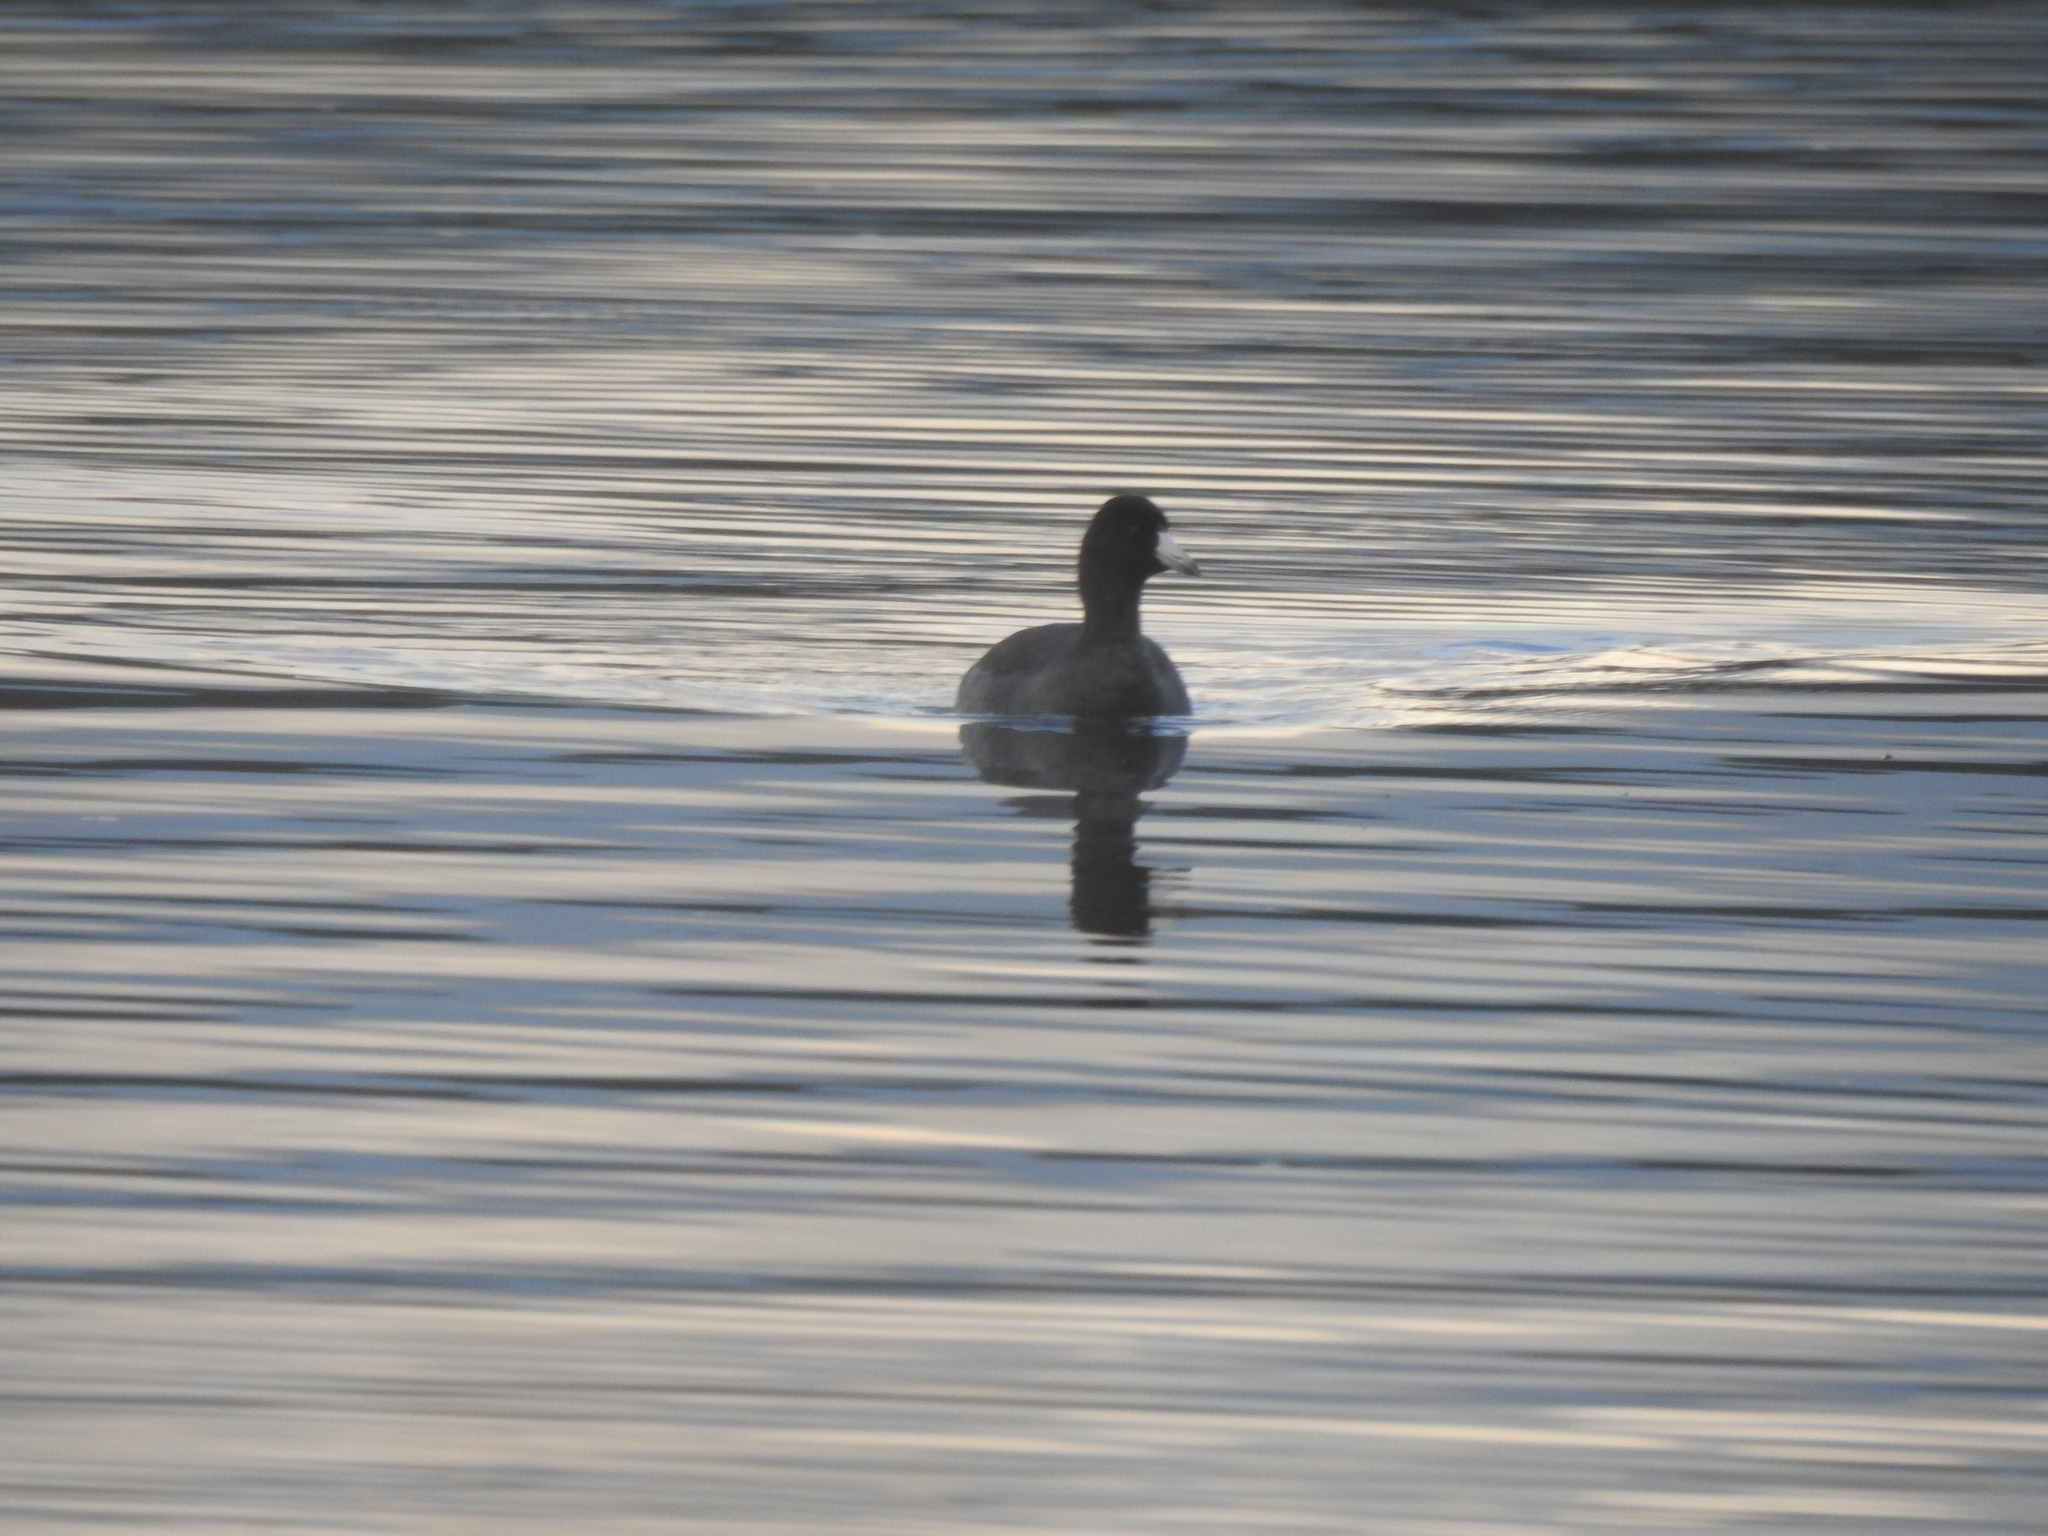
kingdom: Animalia
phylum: Chordata
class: Aves
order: Gruiformes
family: Rallidae
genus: Fulica
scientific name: Fulica americana
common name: American coot
